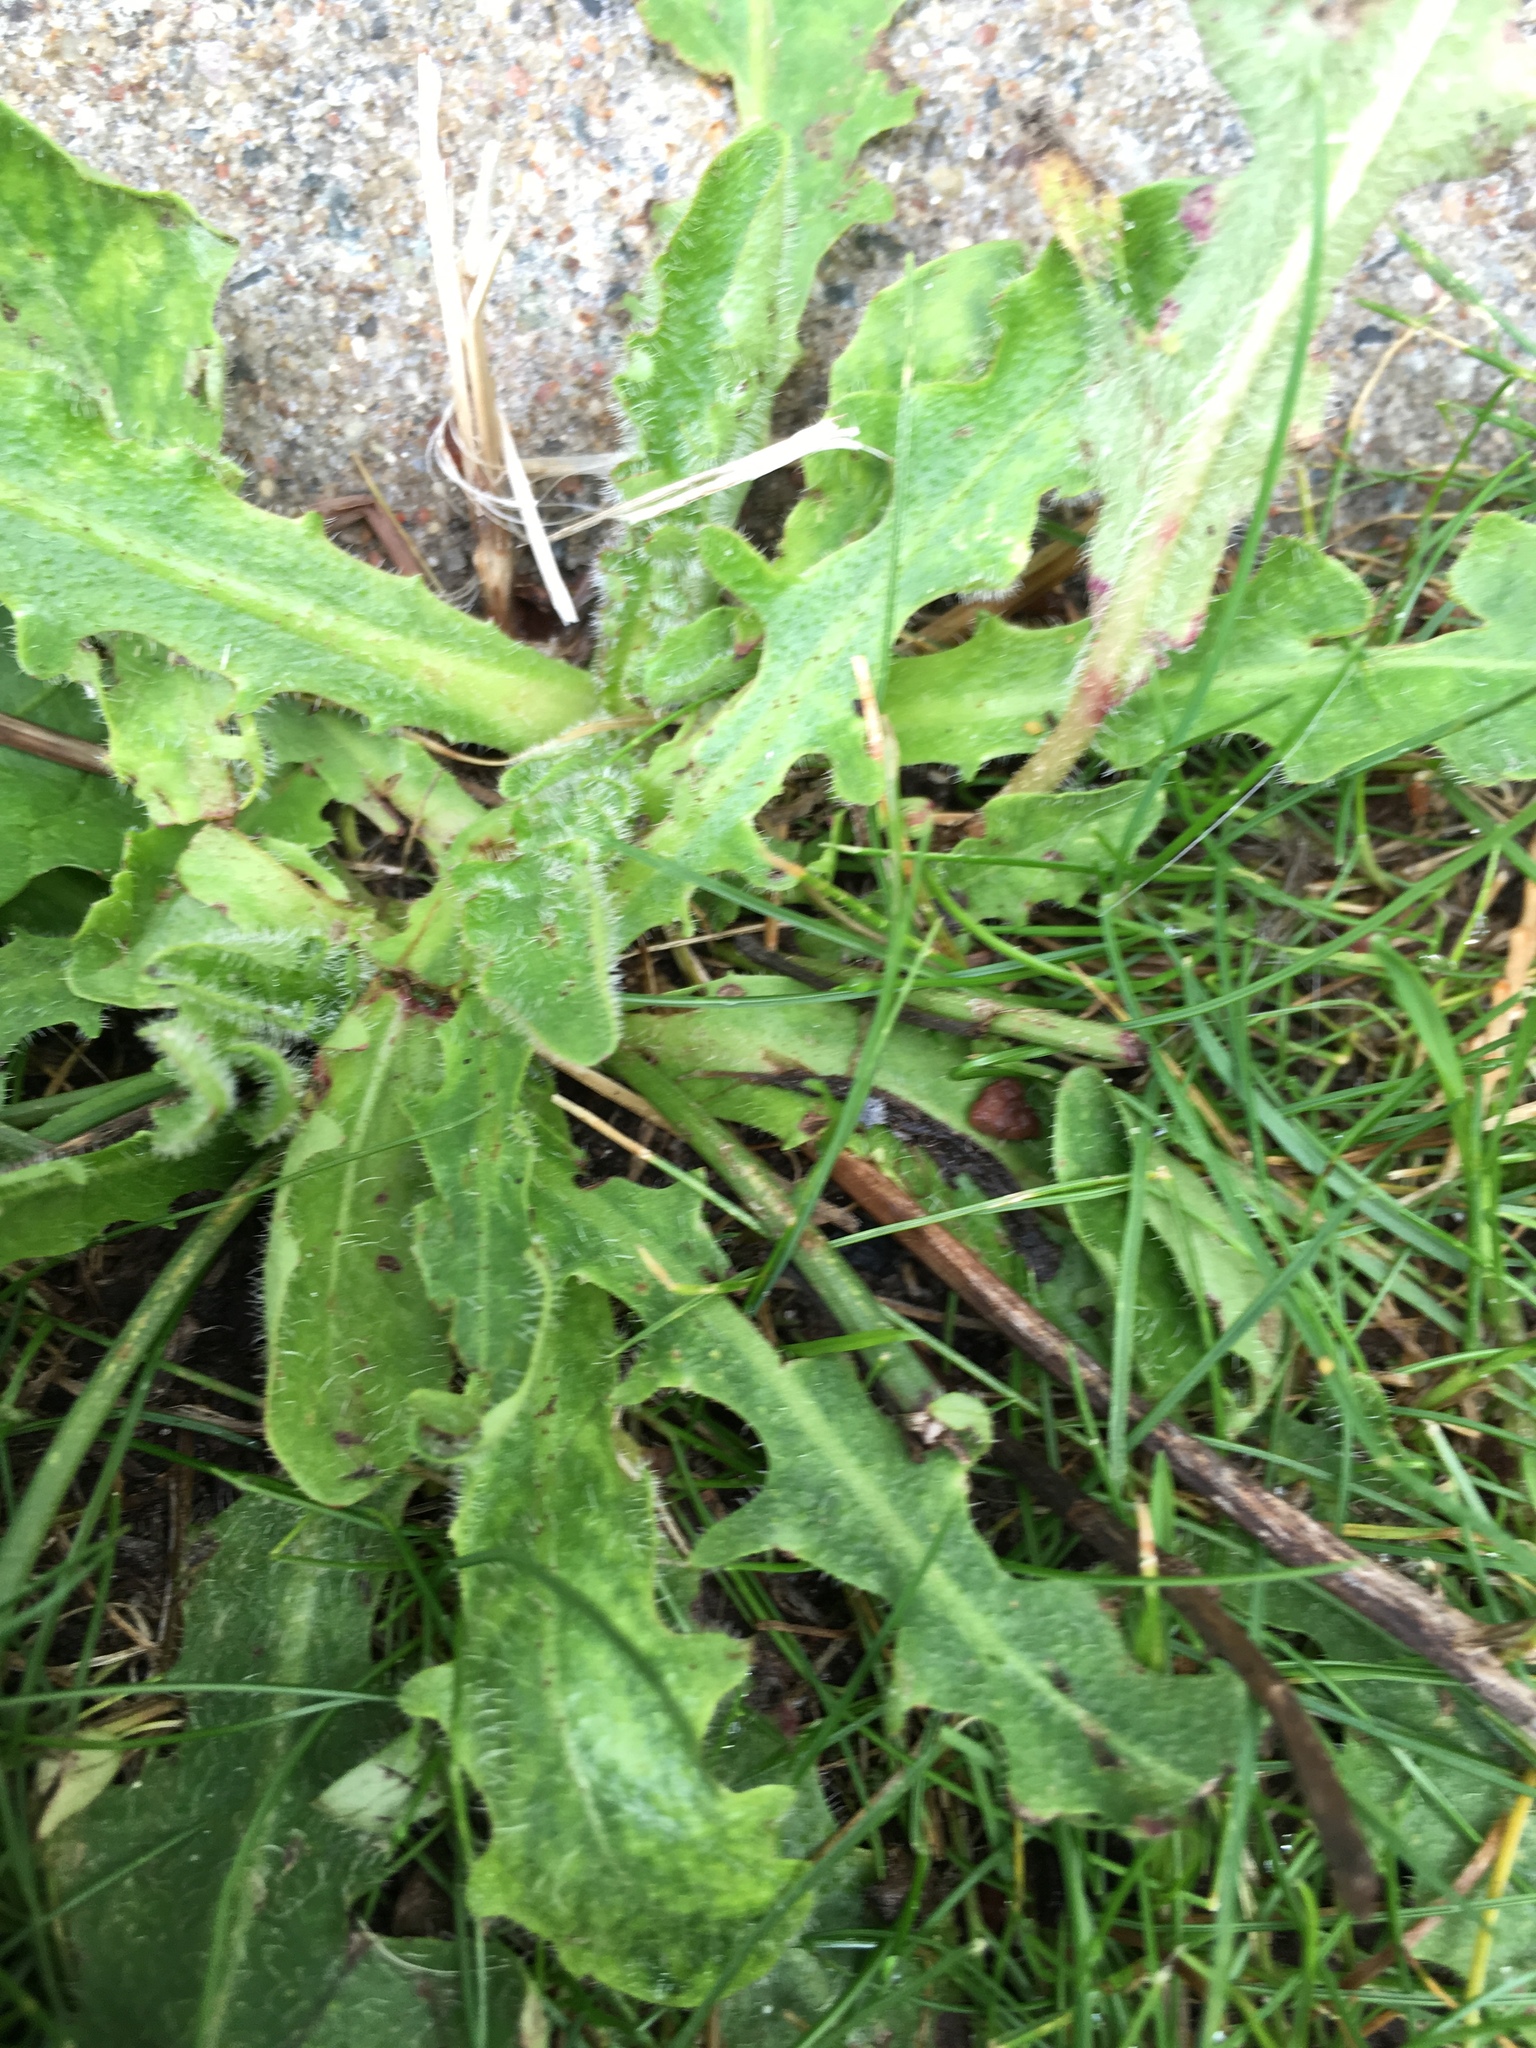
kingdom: Plantae
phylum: Tracheophyta
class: Magnoliopsida
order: Asterales
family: Asteraceae
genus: Hypochaeris
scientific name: Hypochaeris radicata
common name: Flatweed
